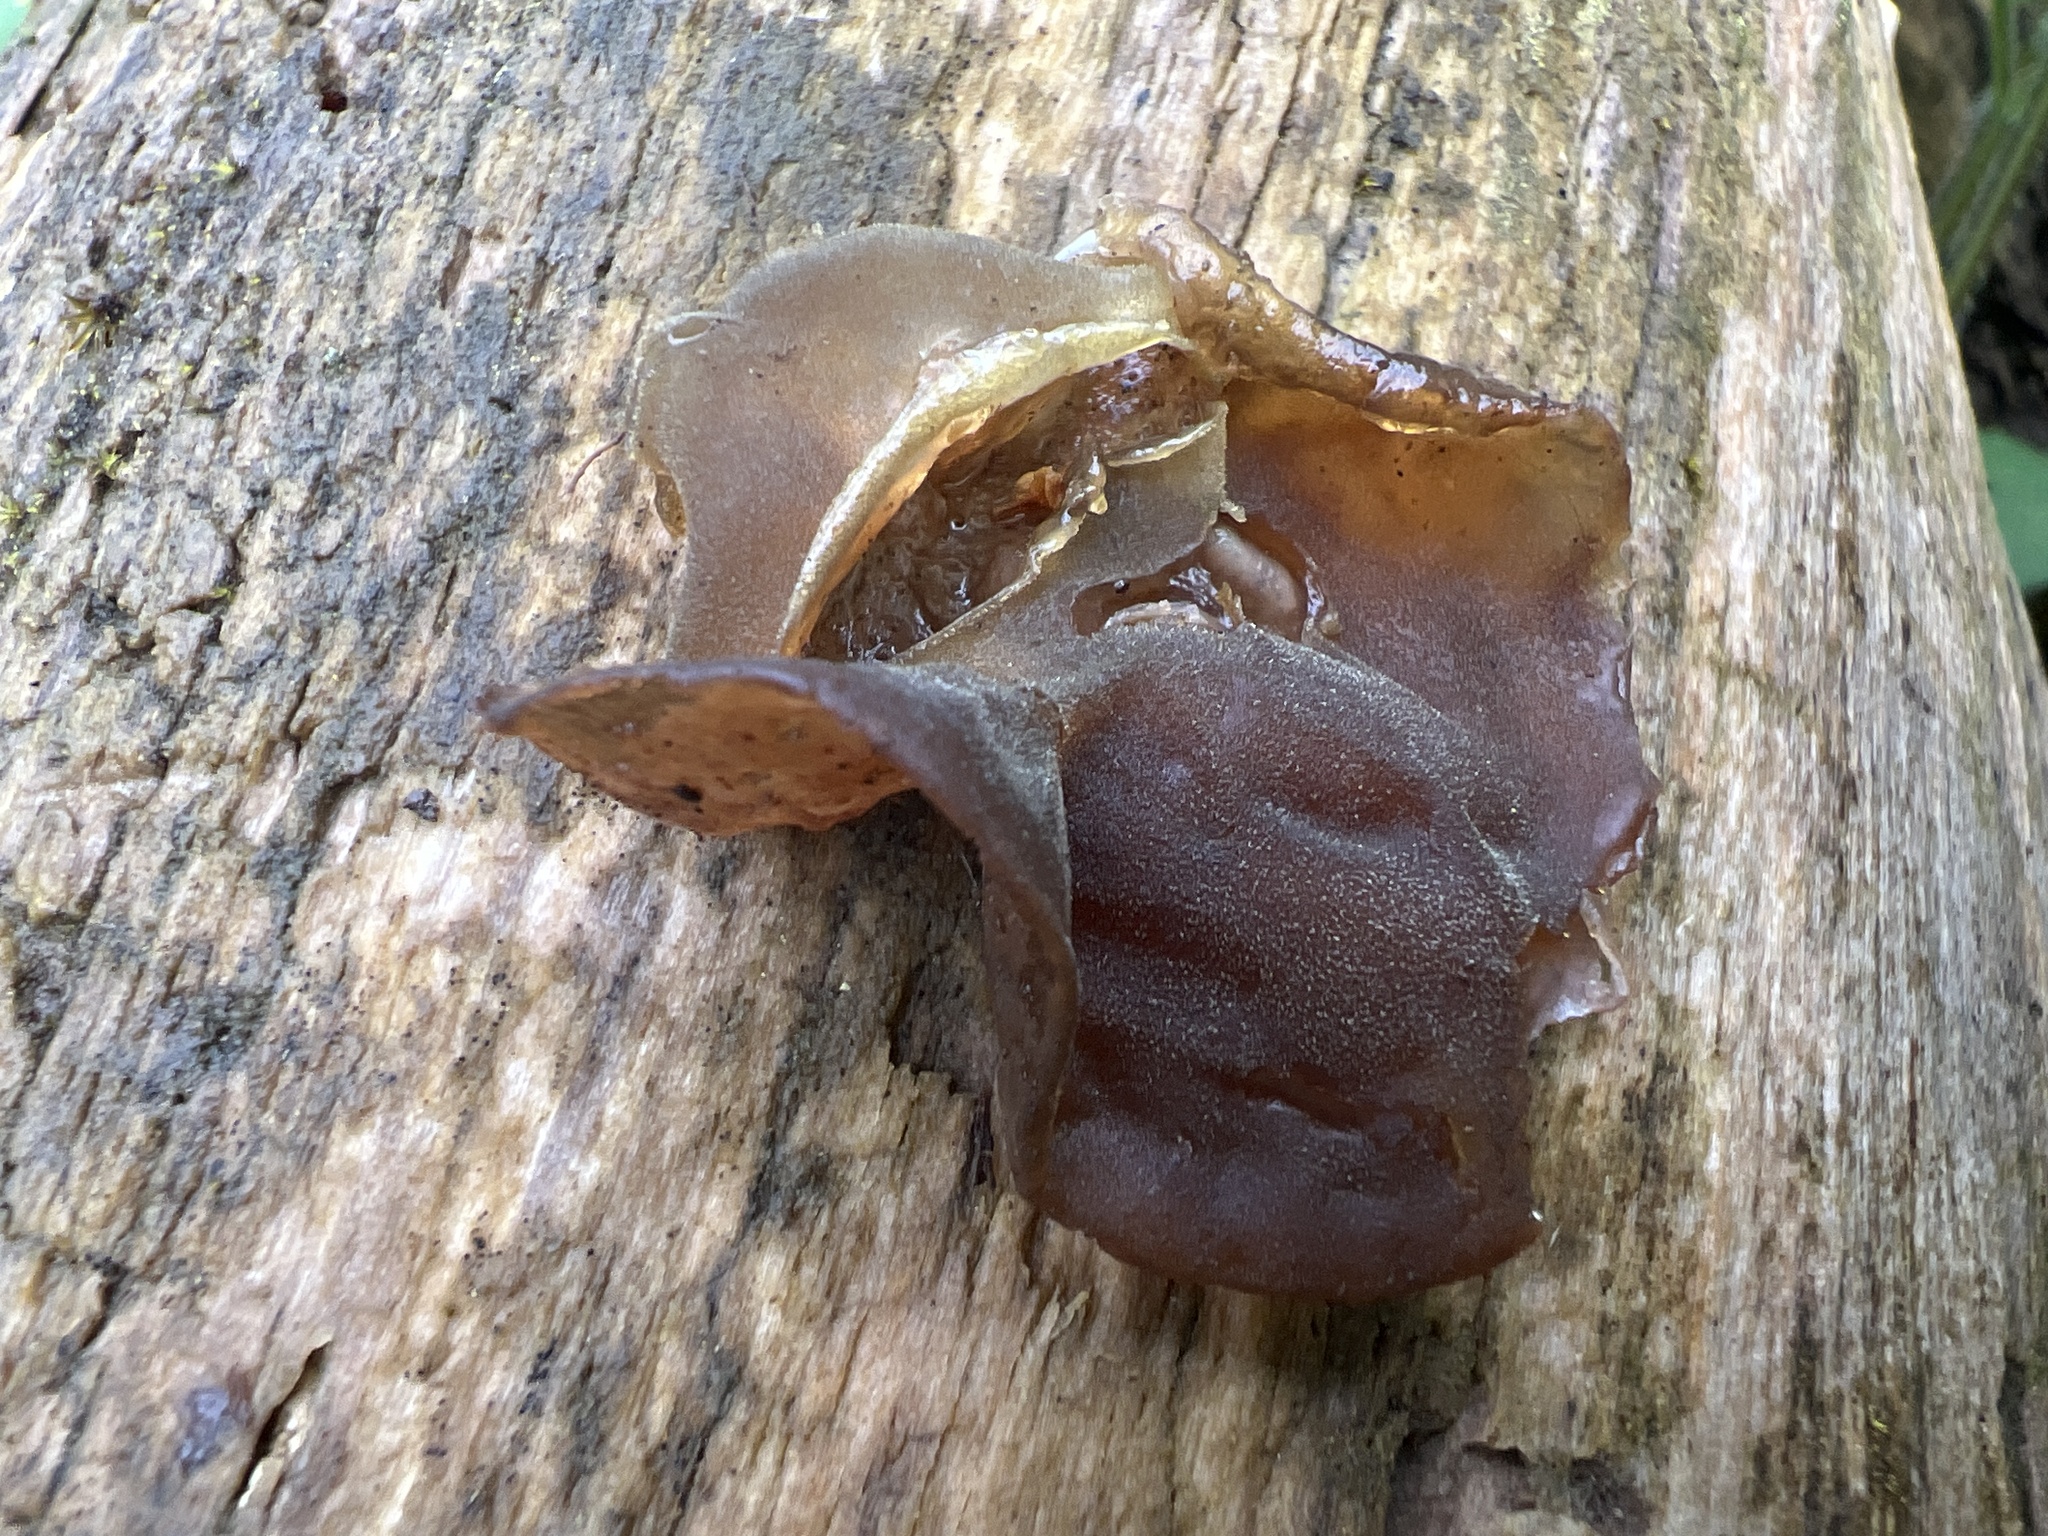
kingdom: Fungi
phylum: Basidiomycota
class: Agaricomycetes
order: Auriculariales
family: Auriculariaceae
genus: Auricularia
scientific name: Auricularia auricula-judae
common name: Jelly ear
